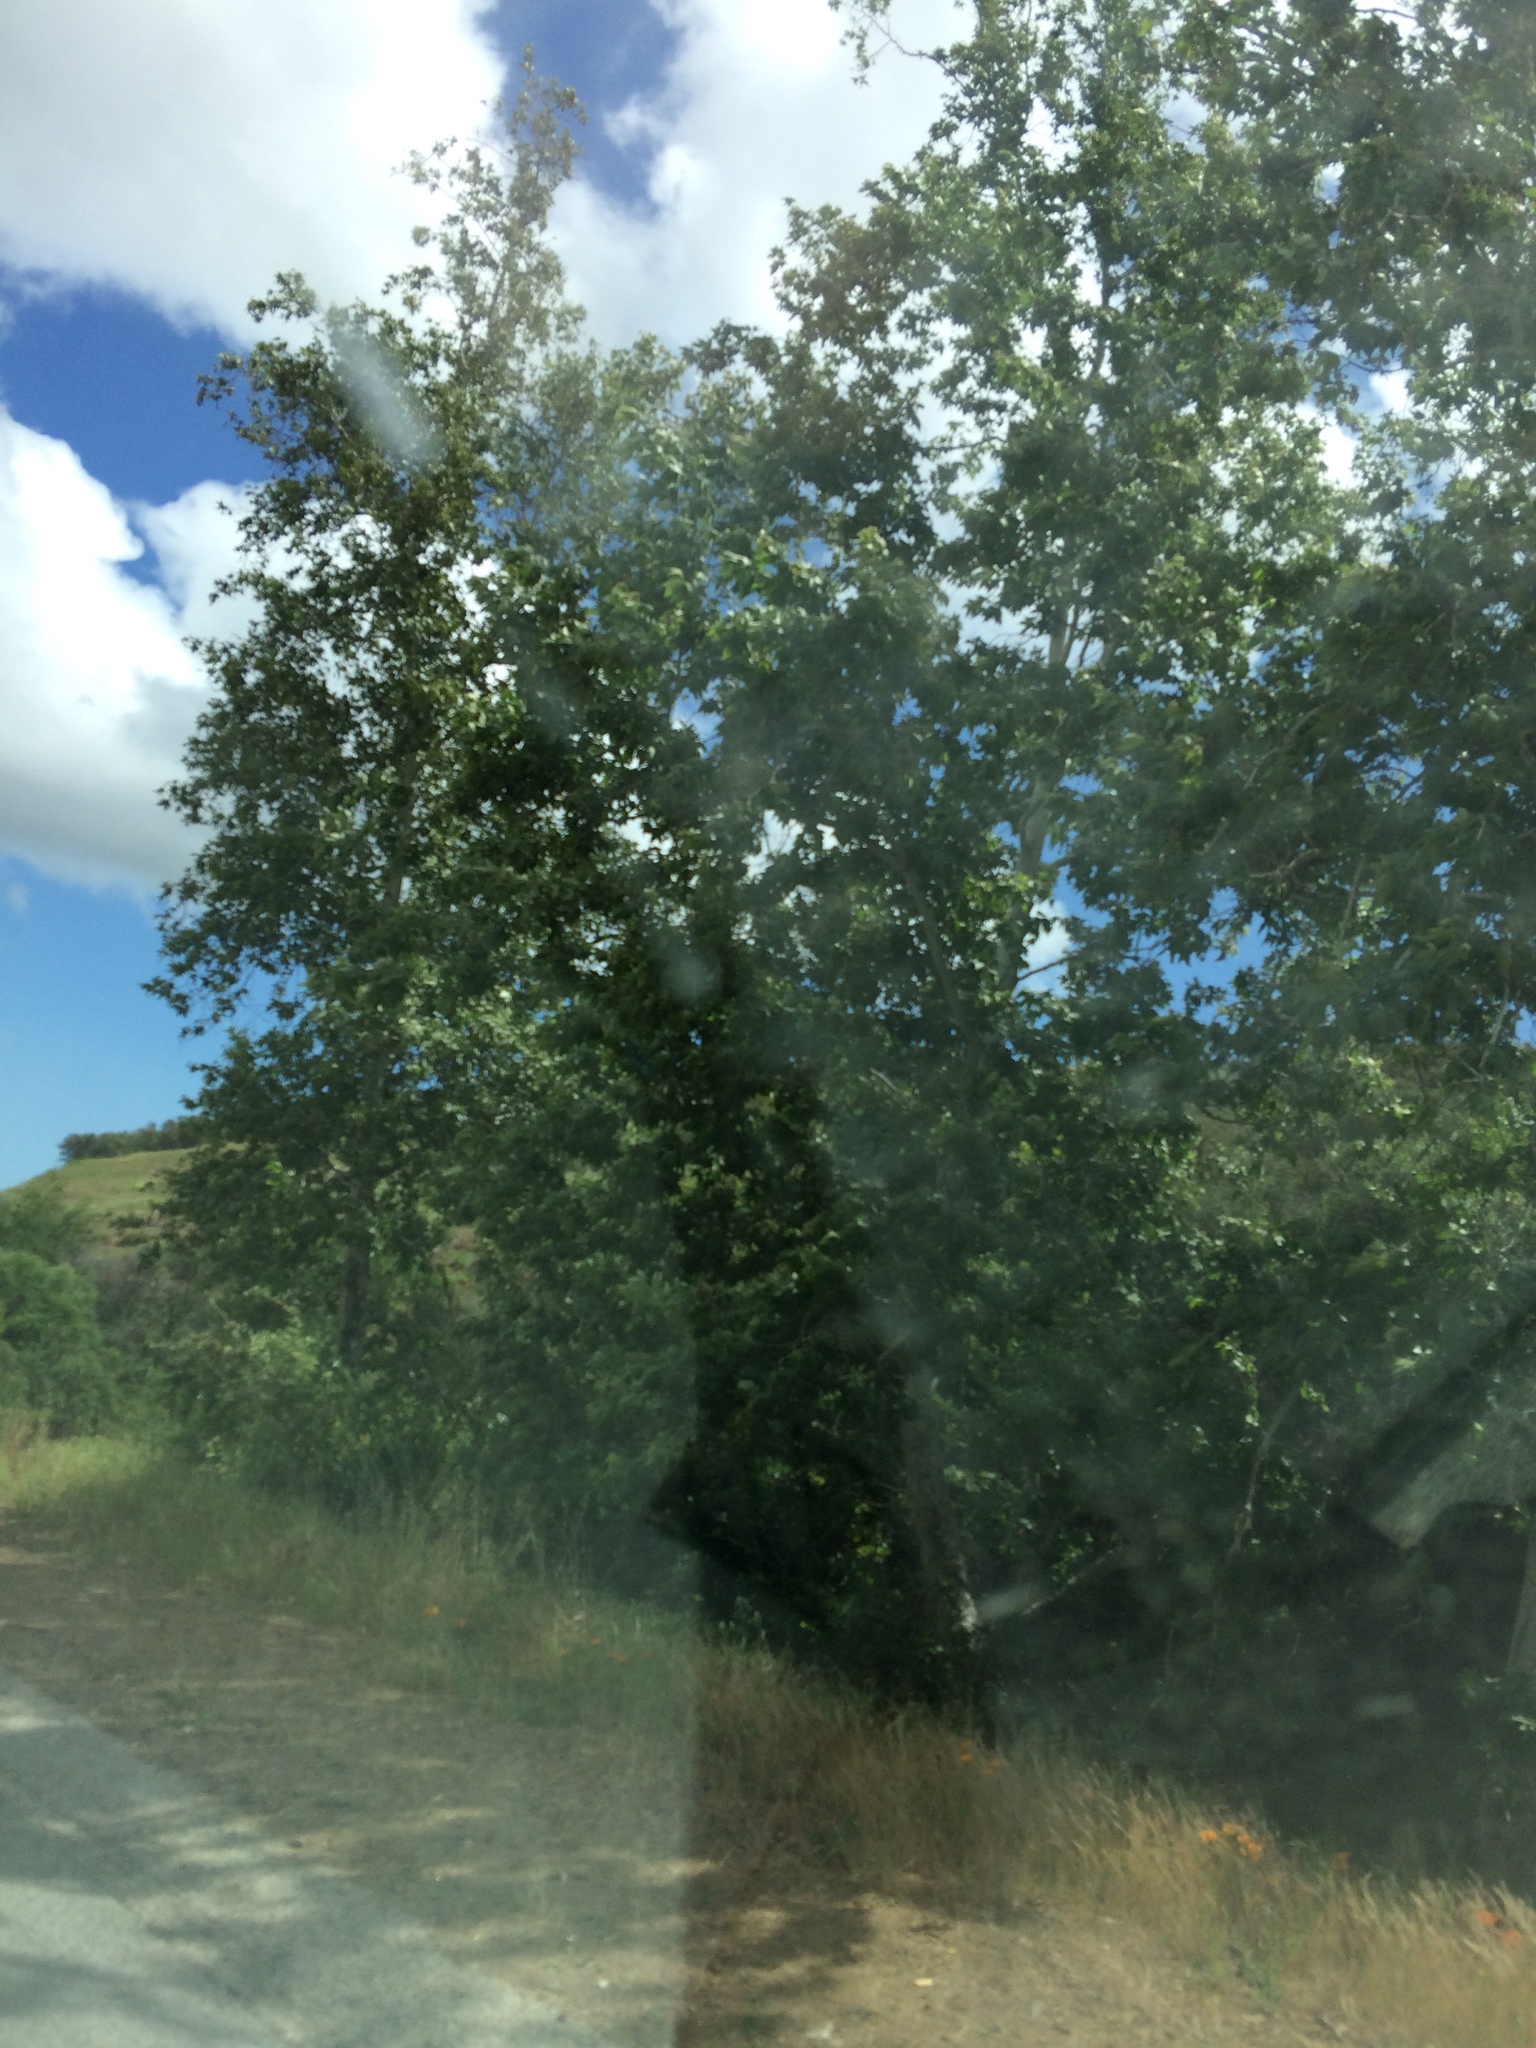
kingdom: Plantae
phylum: Tracheophyta
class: Magnoliopsida
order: Proteales
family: Platanaceae
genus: Platanus
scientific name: Platanus racemosa
